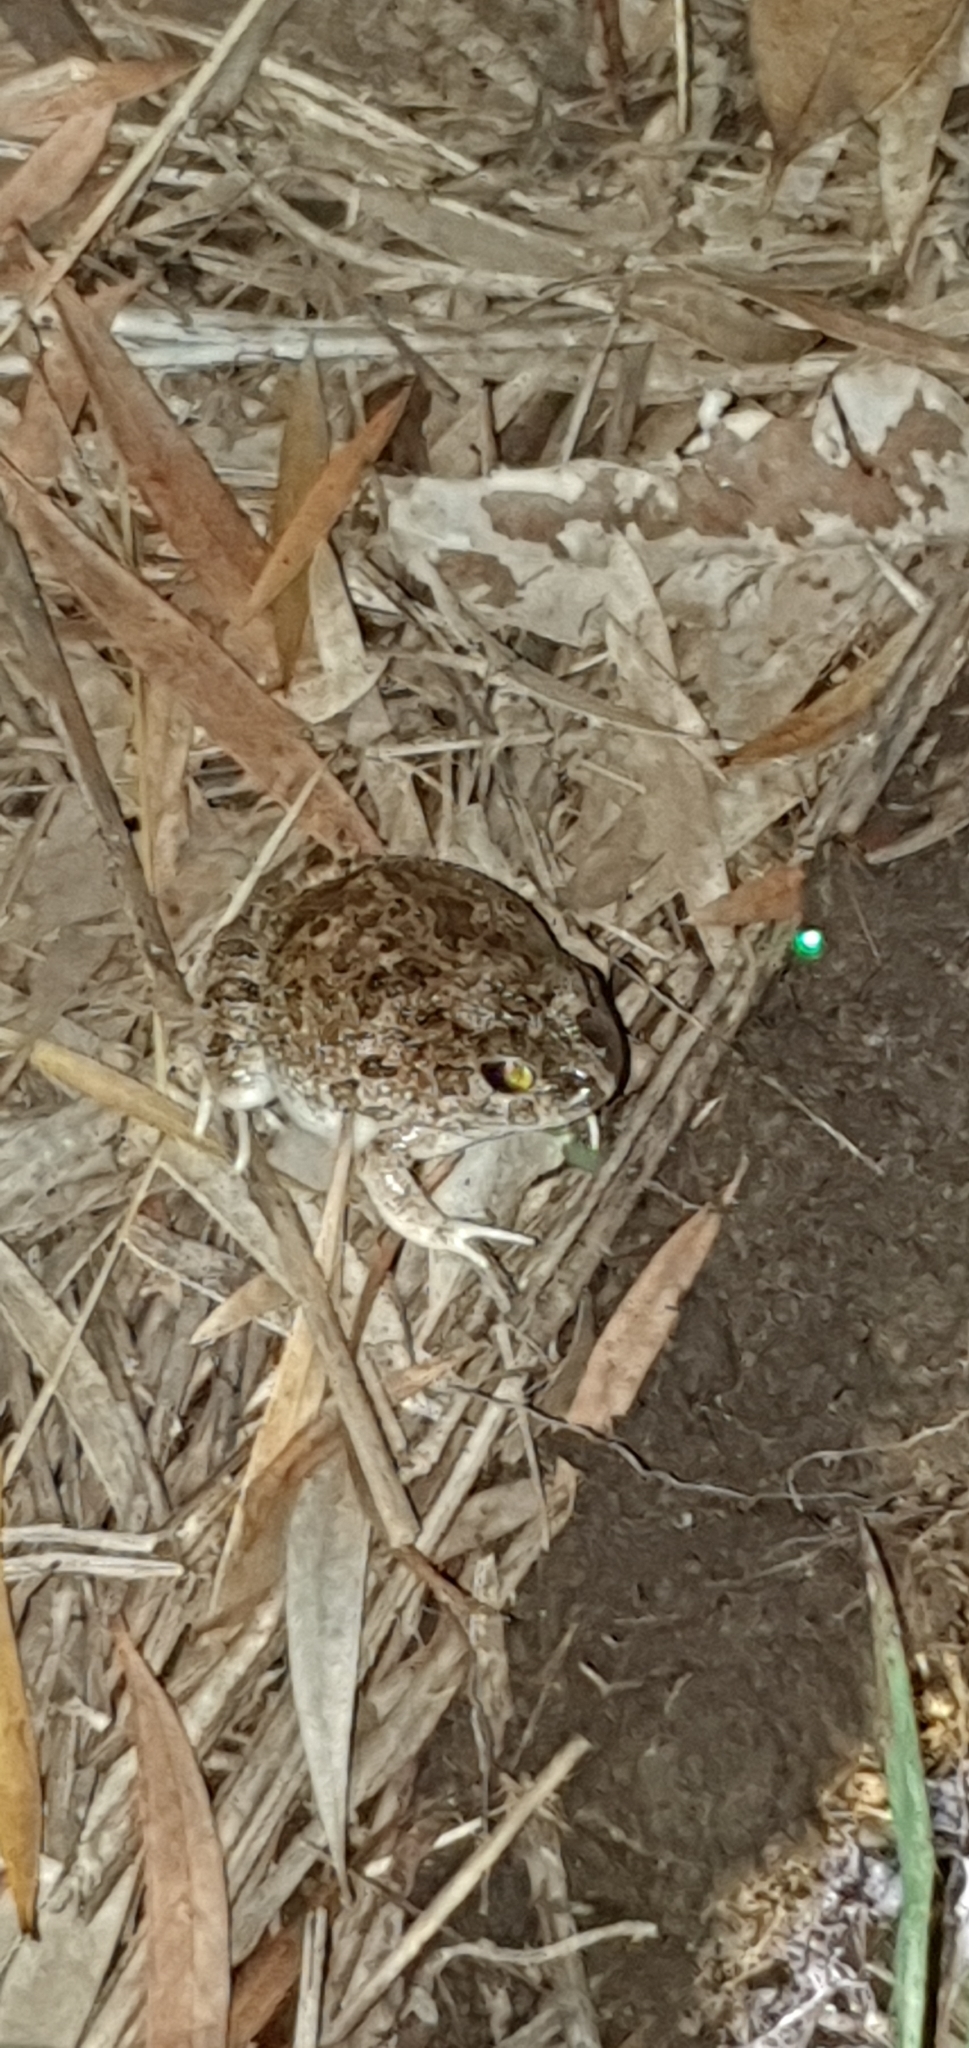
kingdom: Animalia
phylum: Chordata
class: Amphibia
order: Anura
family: Limnodynastidae
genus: Platyplectrum
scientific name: Platyplectrum ornatum
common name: Ornate burrowing frog
